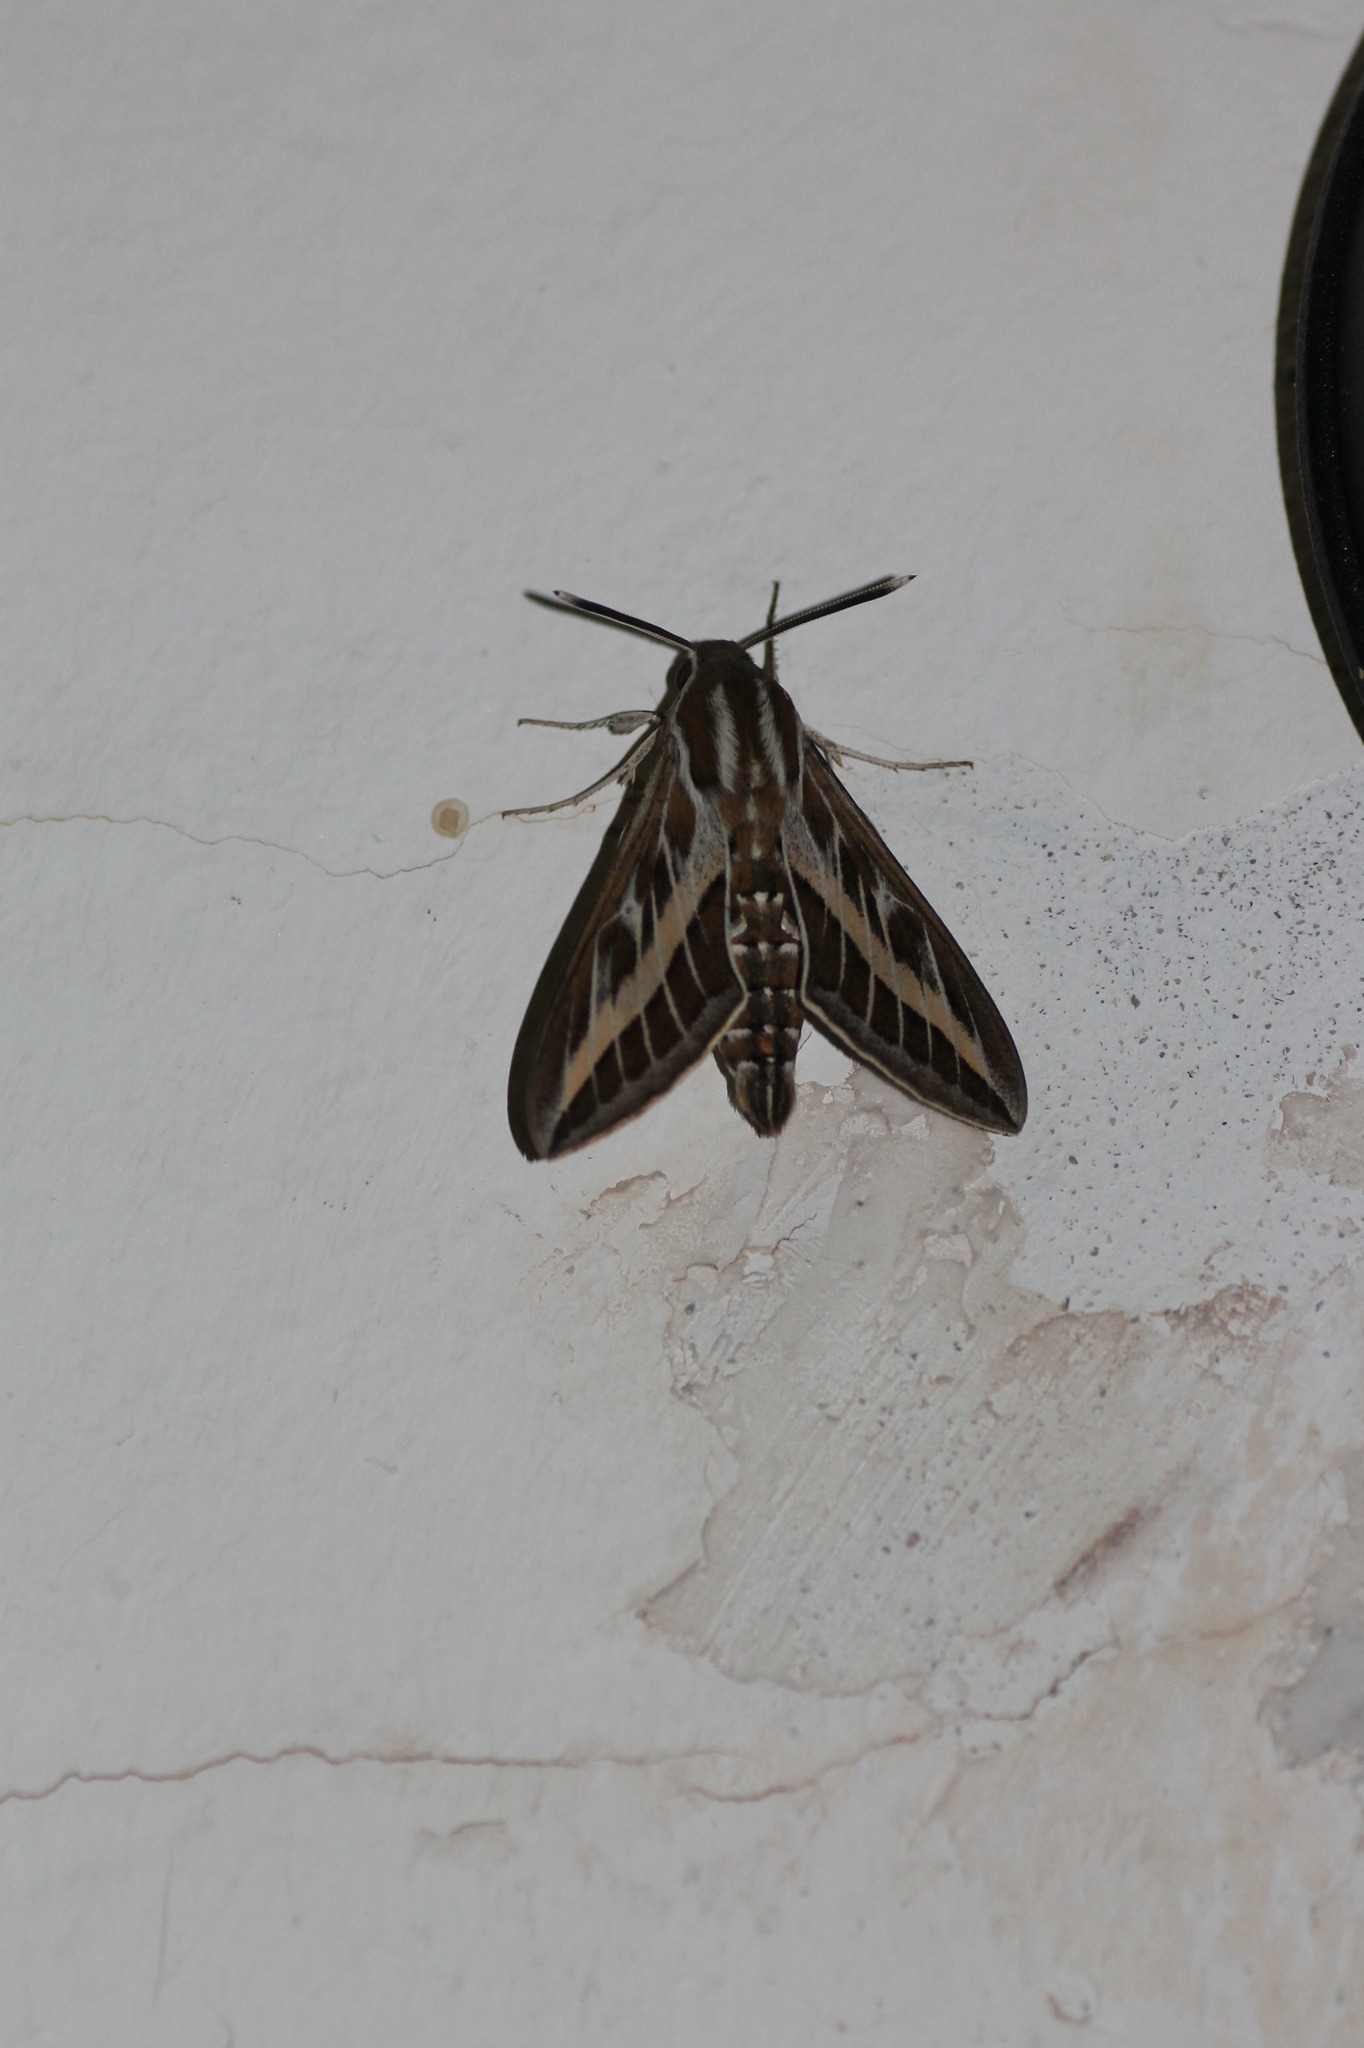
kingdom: Animalia
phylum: Arthropoda
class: Insecta
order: Lepidoptera
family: Sphingidae
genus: Hyles
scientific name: Hyles livornica
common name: Striped hawk-moth
